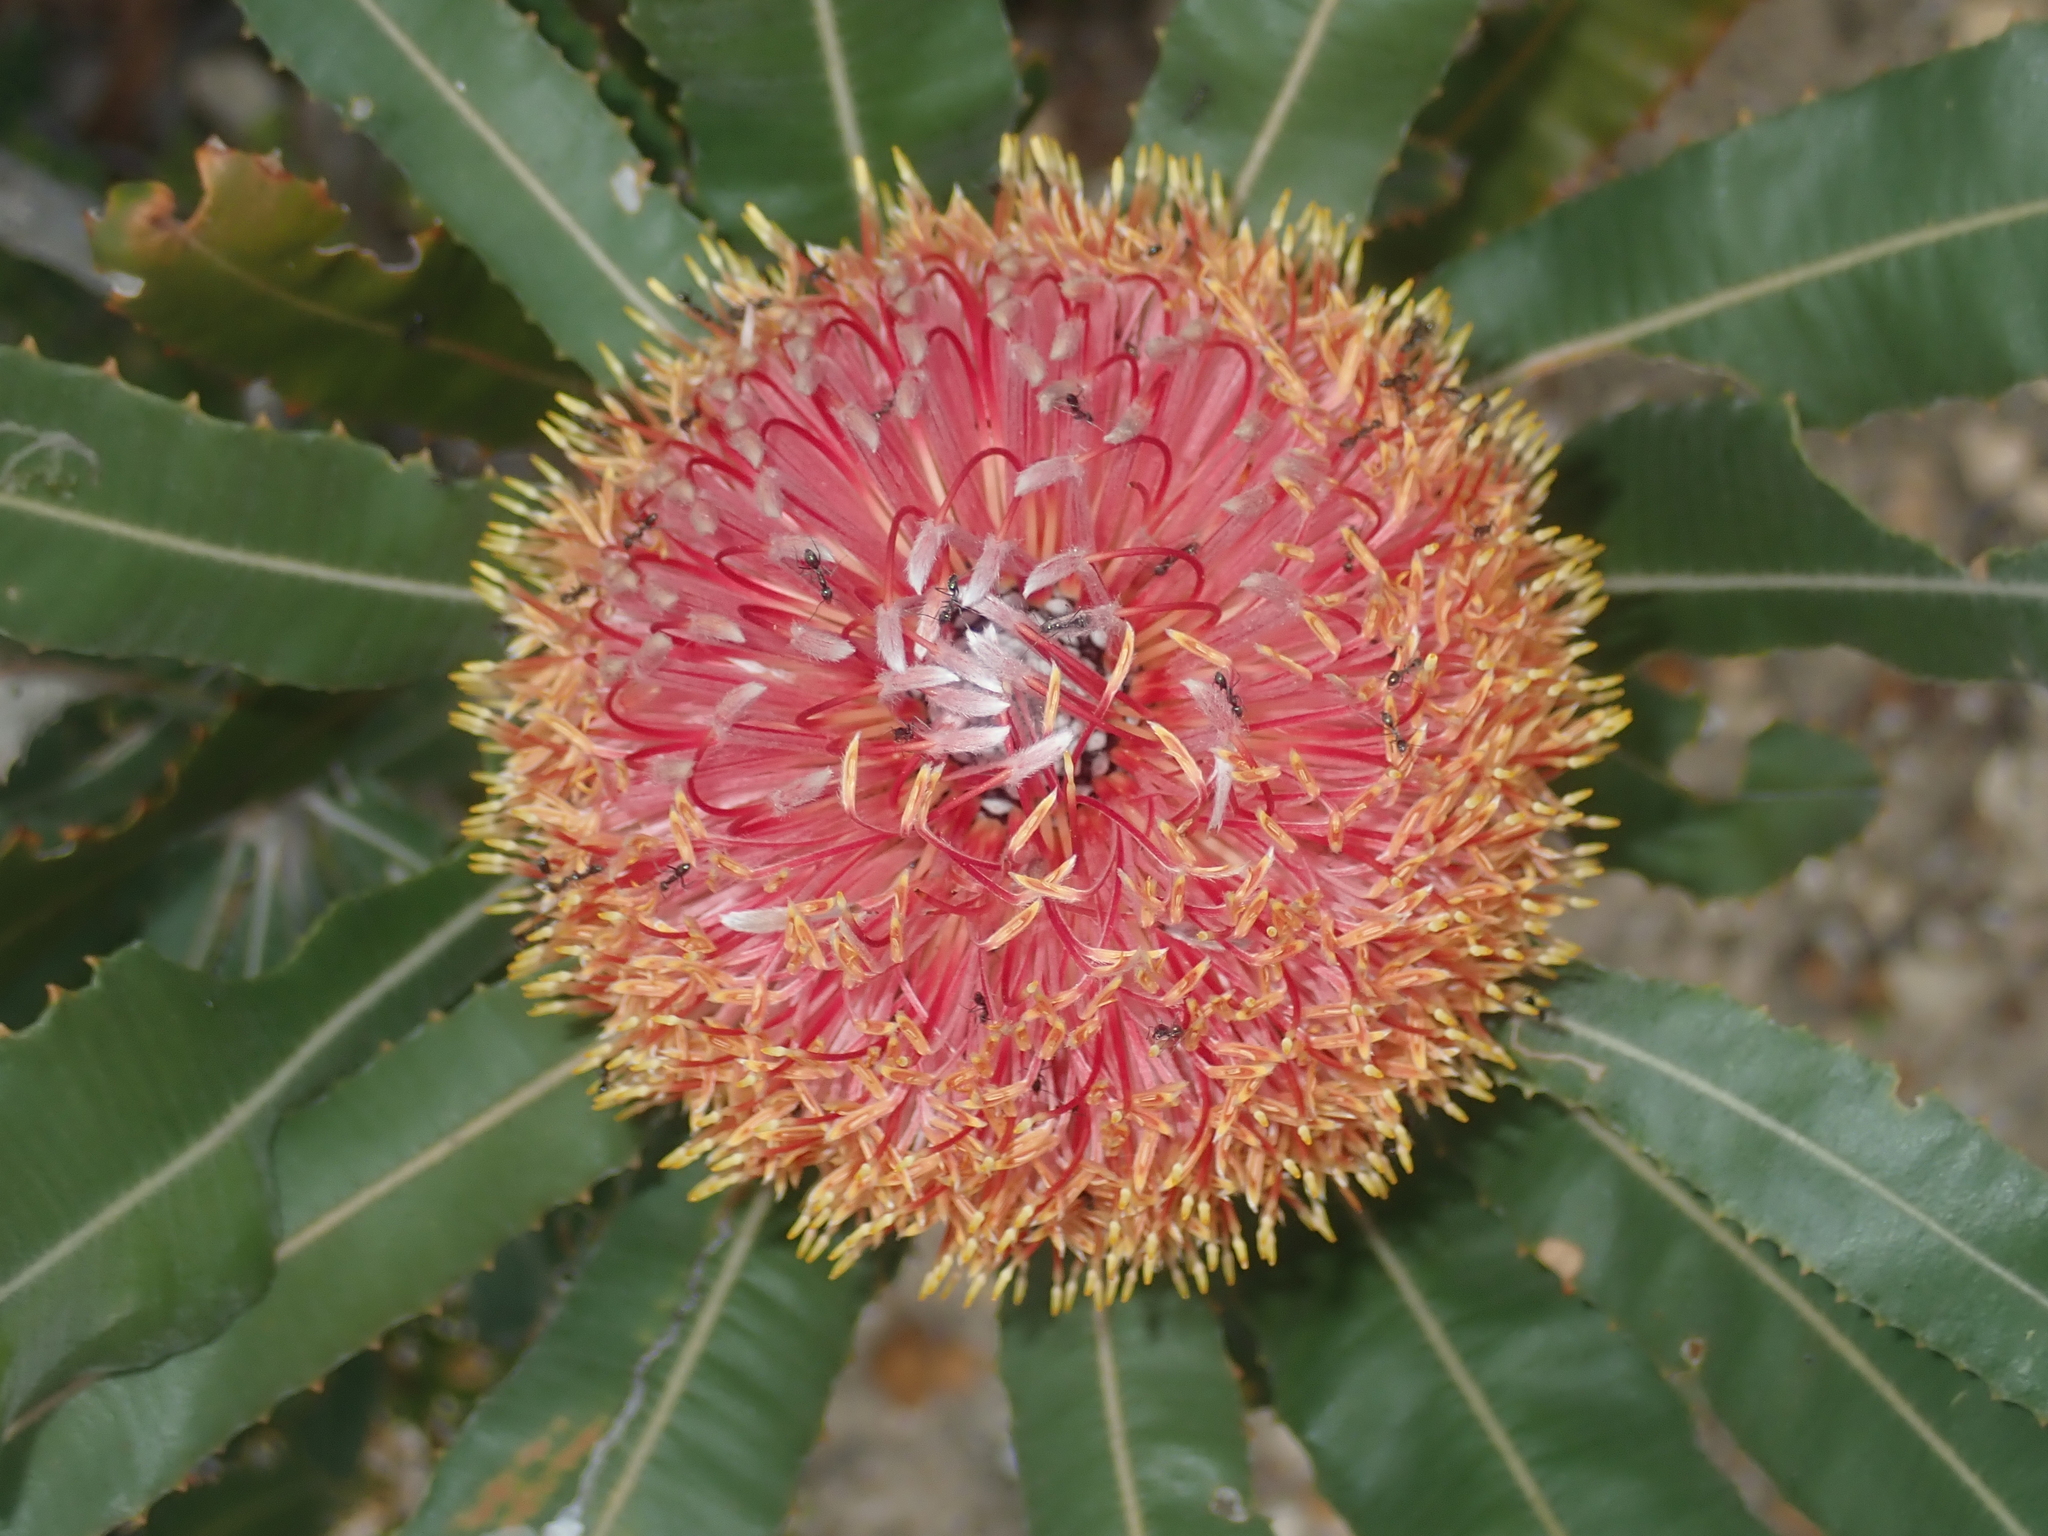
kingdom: Plantae
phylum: Tracheophyta
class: Magnoliopsida
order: Proteales
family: Proteaceae
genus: Banksia
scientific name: Banksia menziesii
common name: Menzie's banksia
